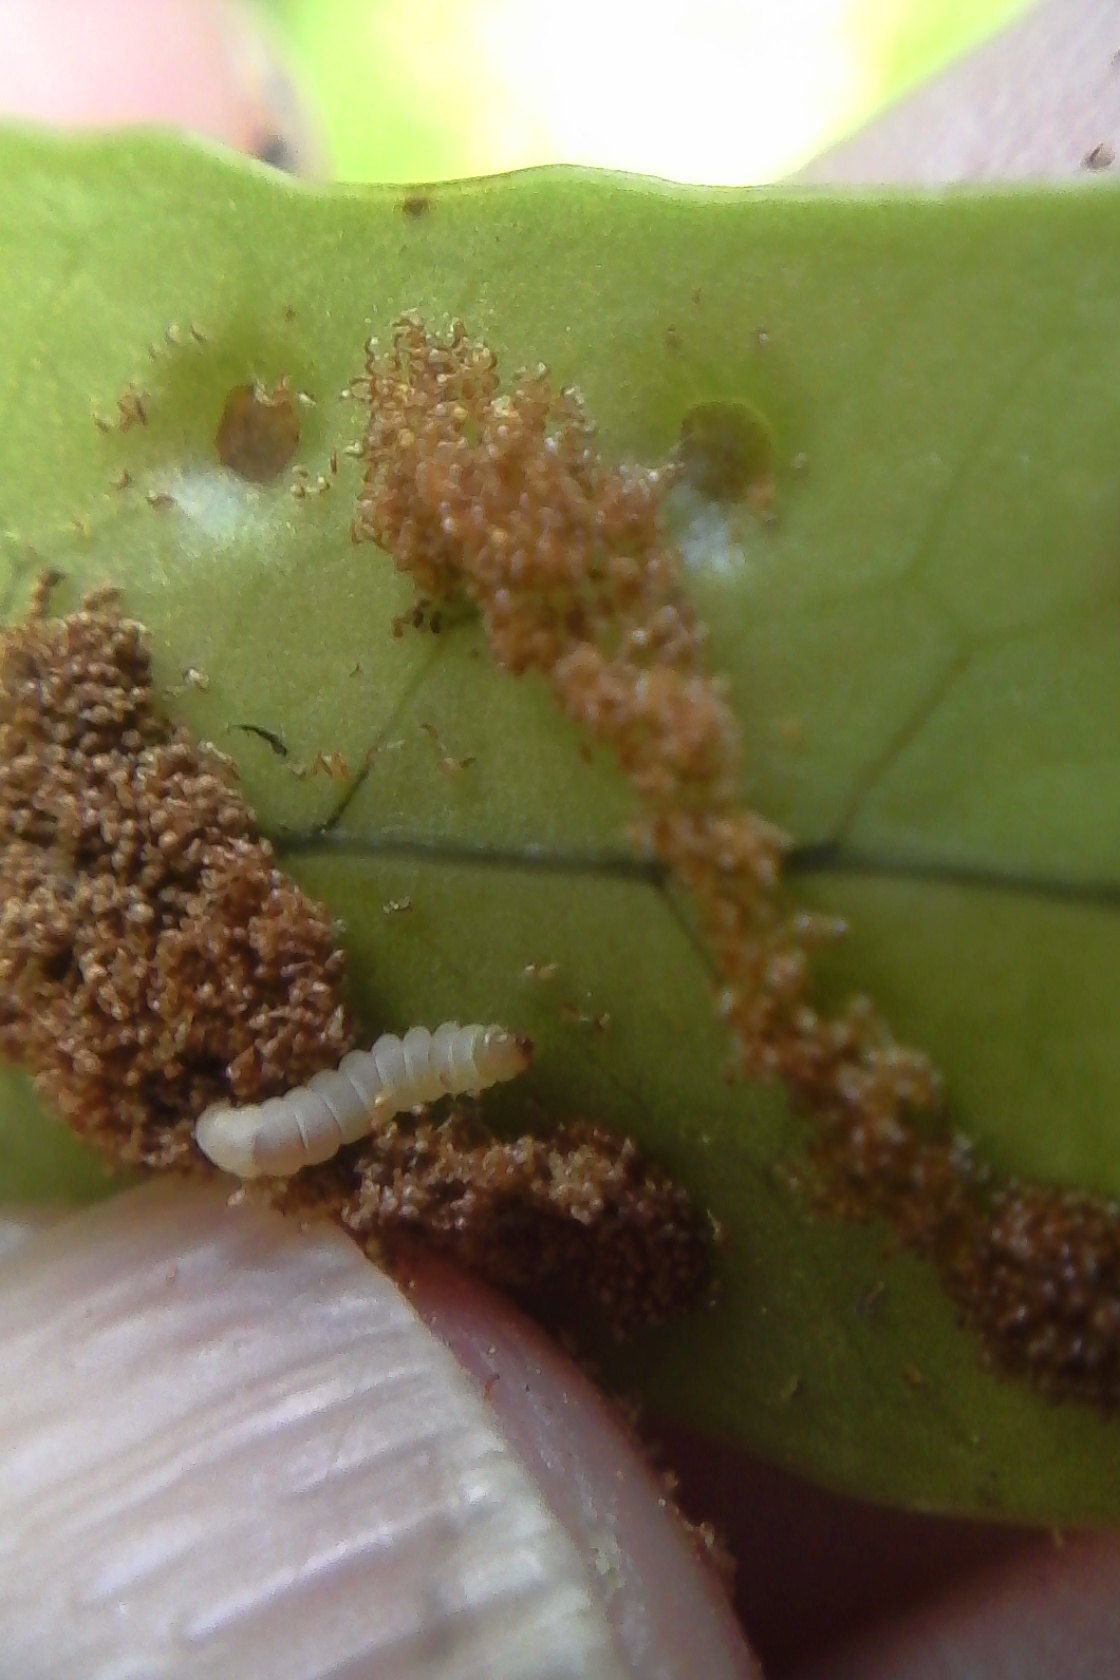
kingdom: Animalia
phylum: Arthropoda
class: Insecta
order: Lepidoptera
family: Stathmopodidae
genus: Thylacosceles
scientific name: Thylacosceles radians
